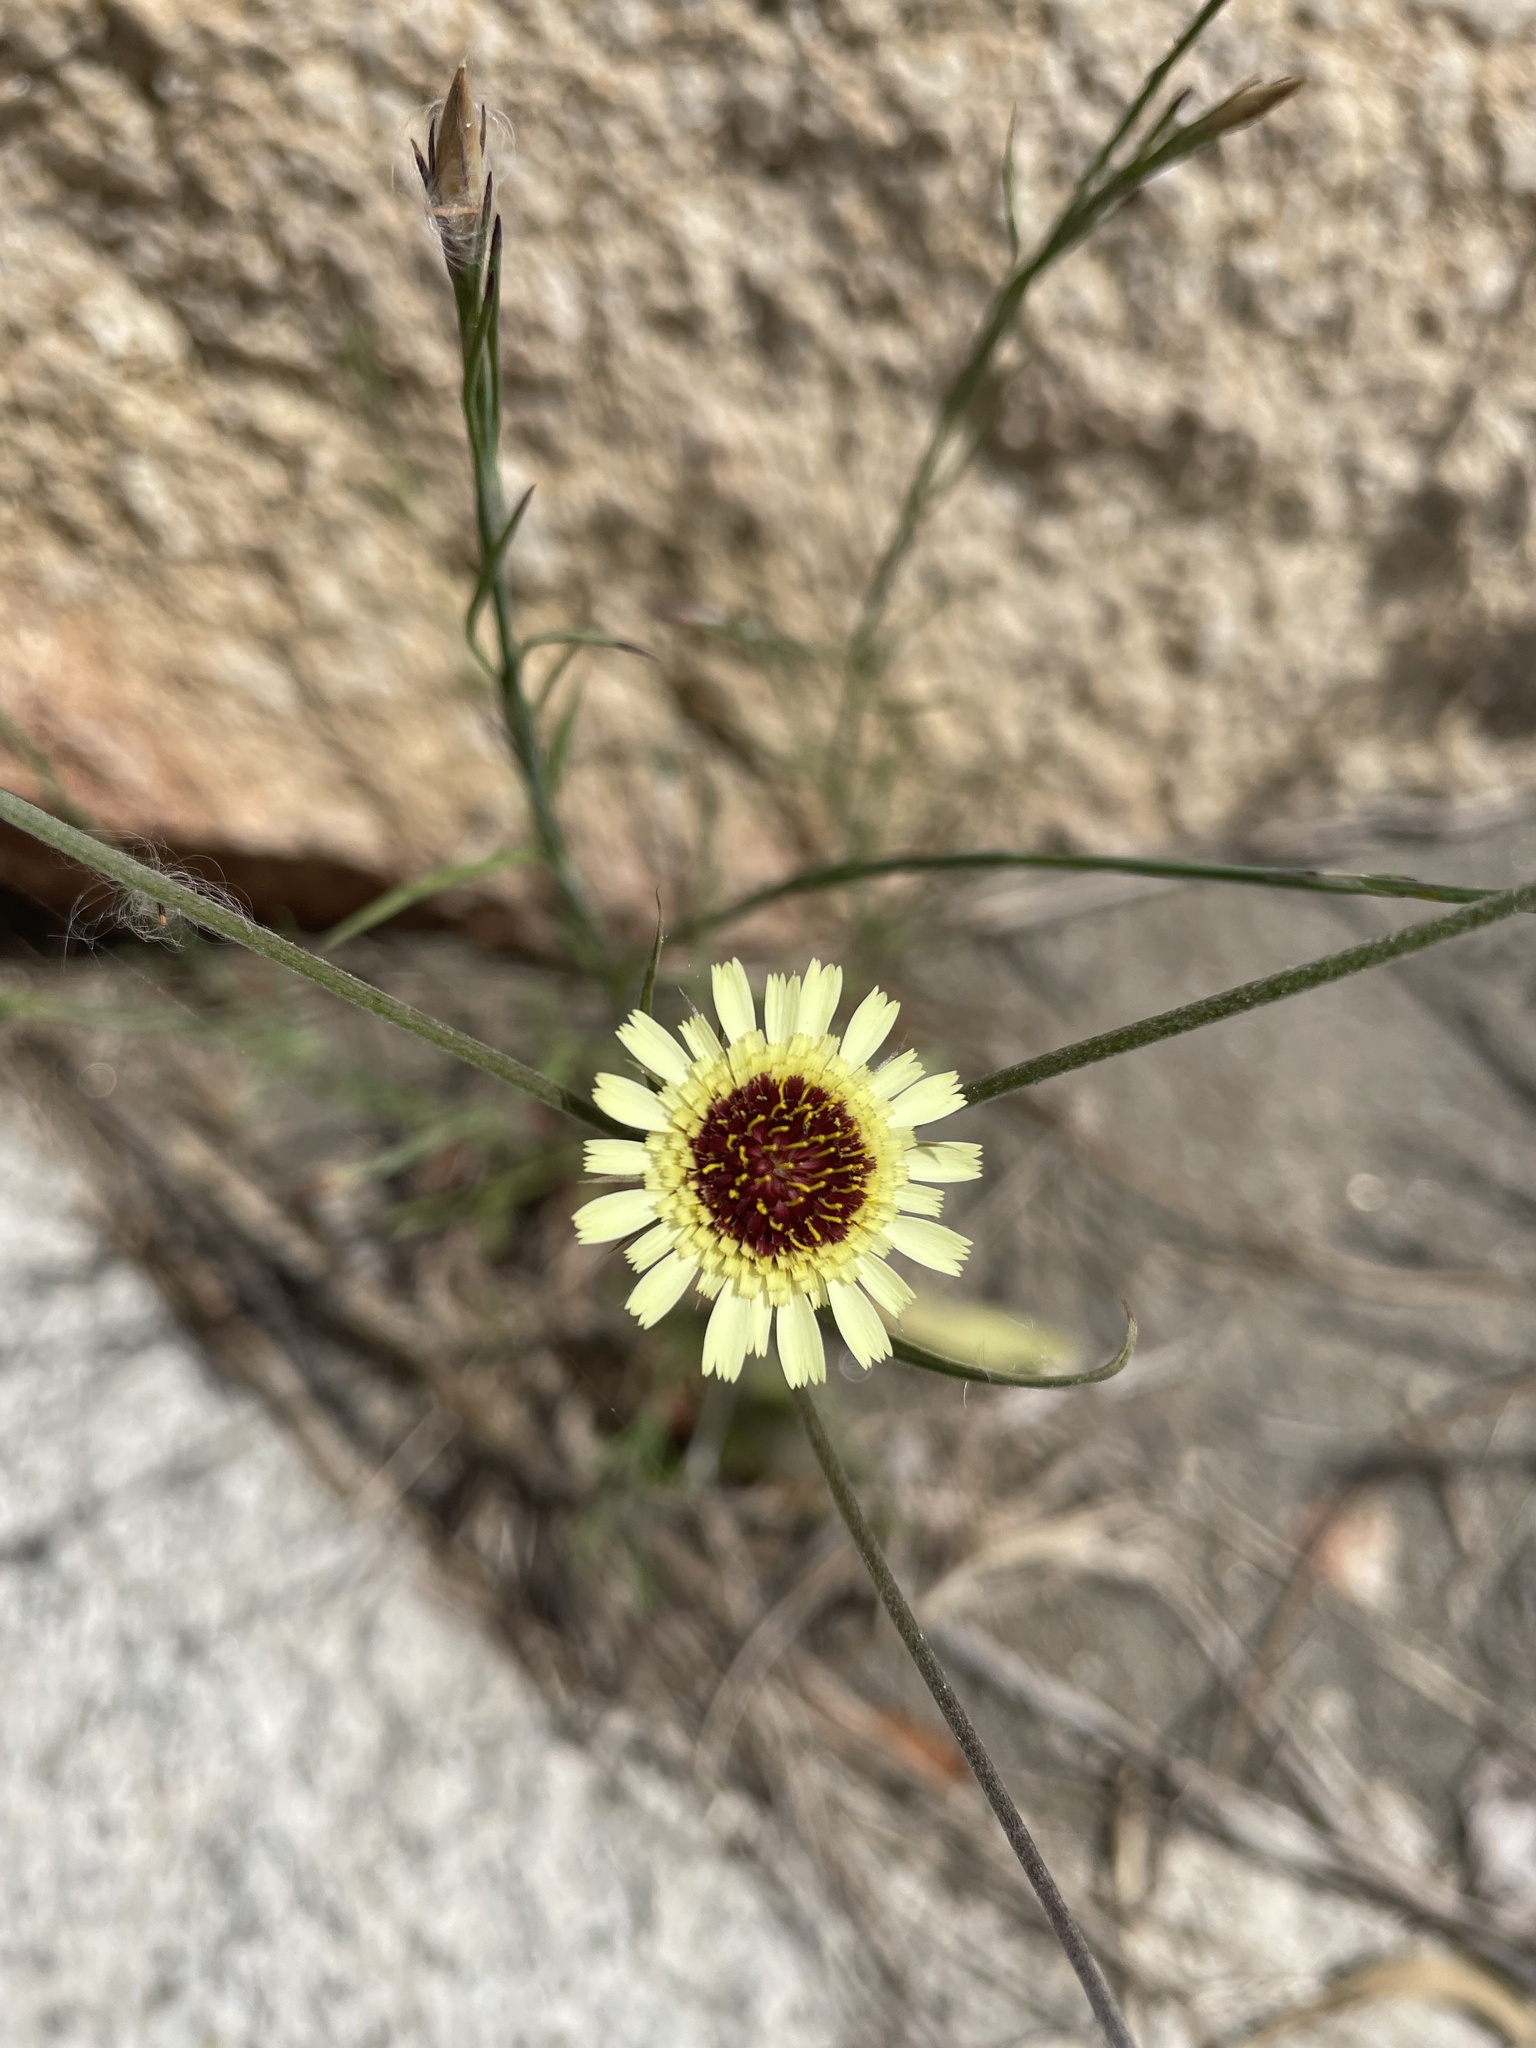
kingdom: Plantae
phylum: Tracheophyta
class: Magnoliopsida
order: Asterales
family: Asteraceae
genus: Tolpis
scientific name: Tolpis barbata
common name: Yellow hawkweed
